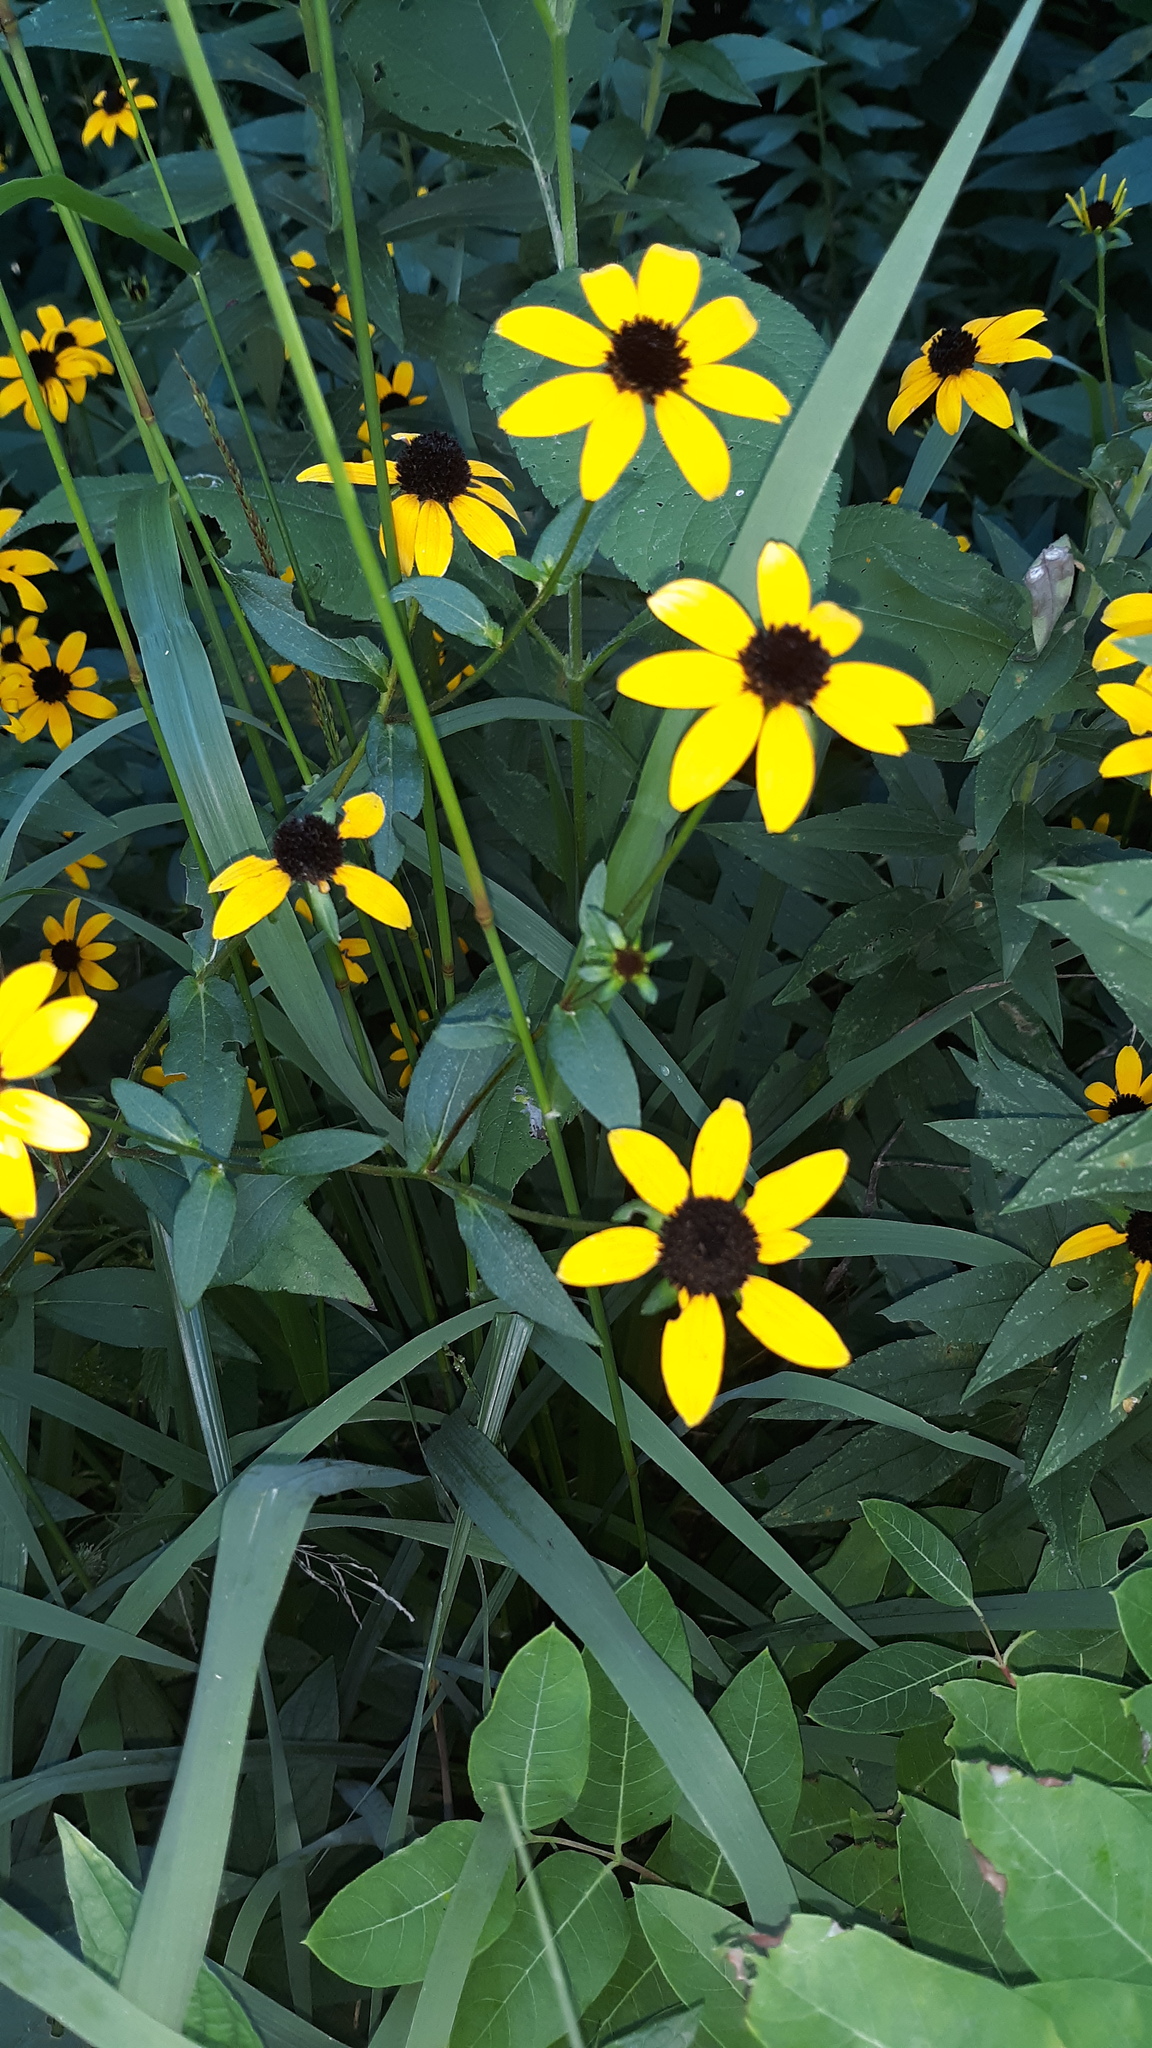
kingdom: Plantae
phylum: Tracheophyta
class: Magnoliopsida
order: Asterales
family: Asteraceae
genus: Rudbeckia
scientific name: Rudbeckia triloba
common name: Thin-leaved coneflower
